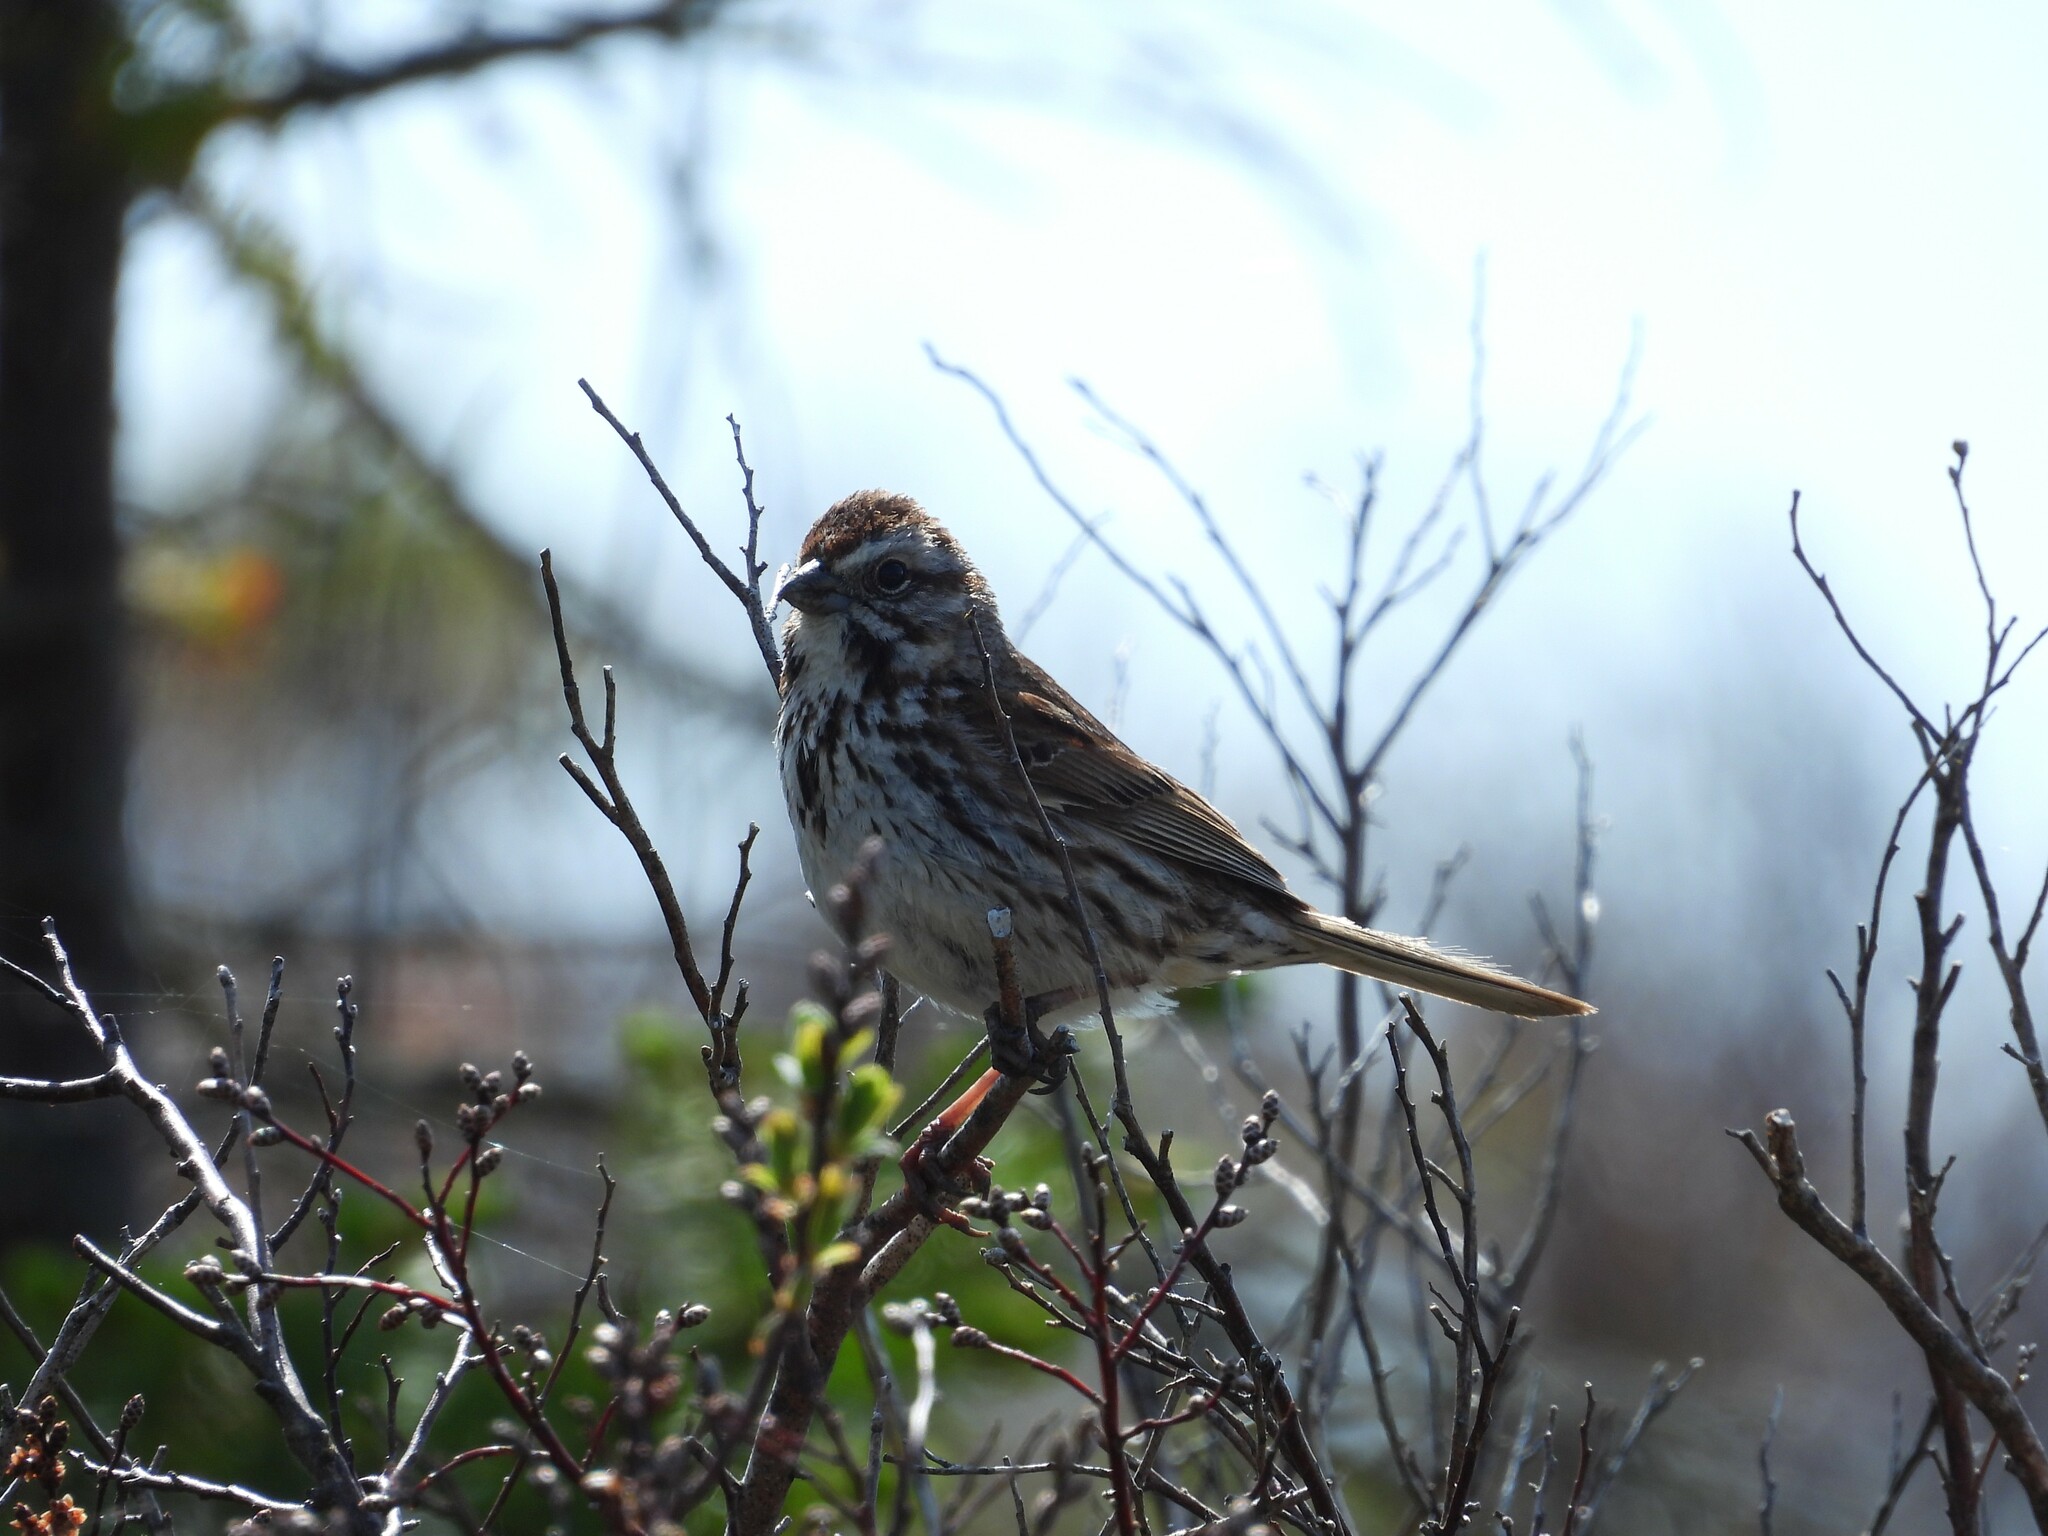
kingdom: Animalia
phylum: Chordata
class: Aves
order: Passeriformes
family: Passerellidae
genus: Melospiza
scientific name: Melospiza melodia
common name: Song sparrow
